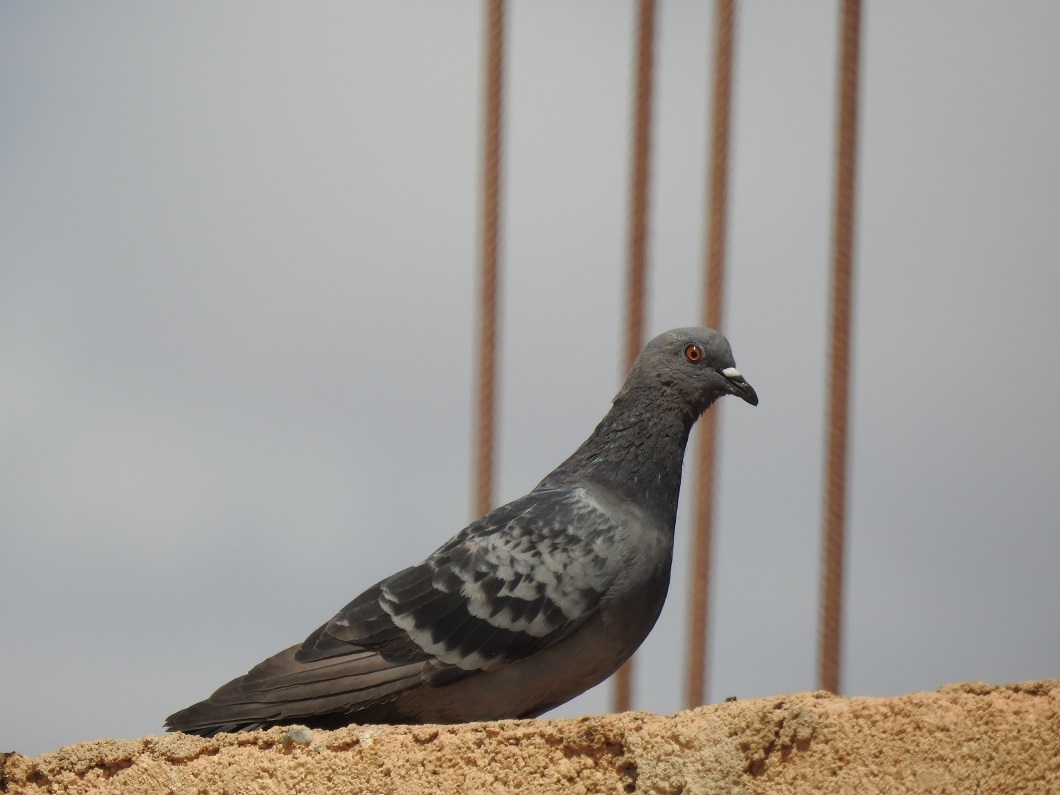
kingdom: Animalia
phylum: Chordata
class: Aves
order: Columbiformes
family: Columbidae
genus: Columba
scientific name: Columba livia
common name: Rock pigeon
